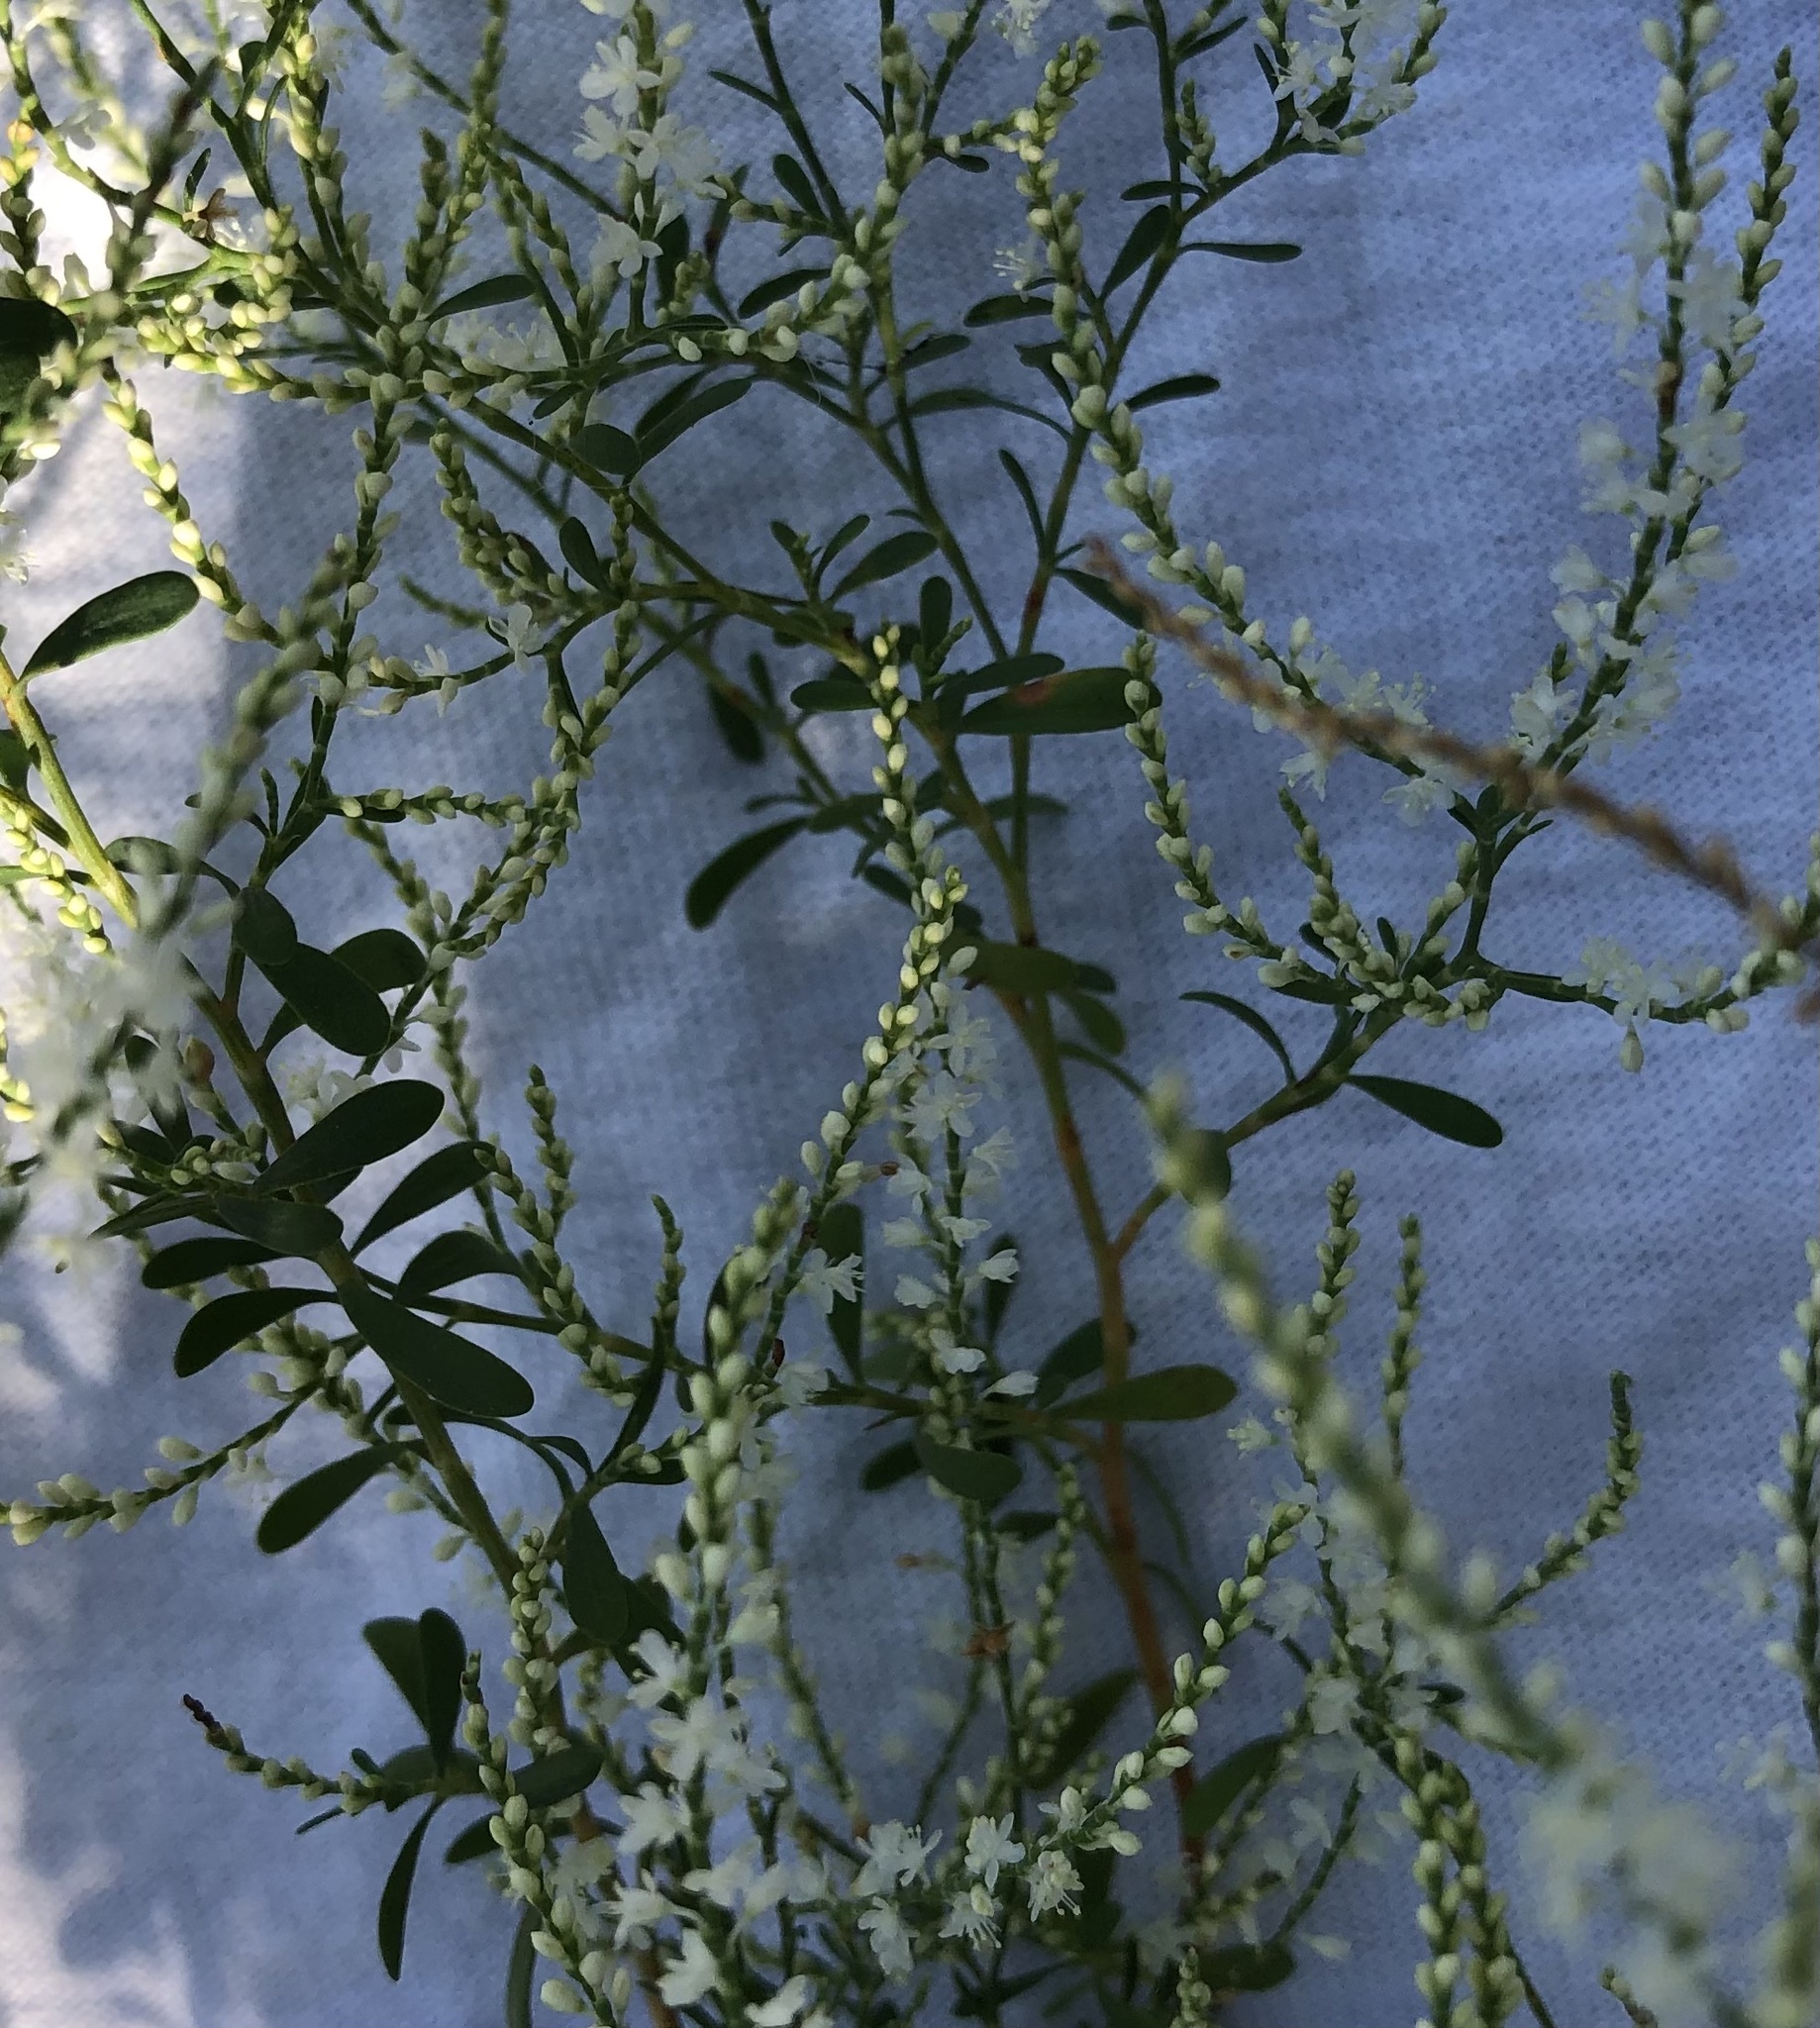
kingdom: Plantae
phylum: Tracheophyta
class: Magnoliopsida
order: Caryophyllales
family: Polygonaceae
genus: Polygonella
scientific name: Polygonella polygama
